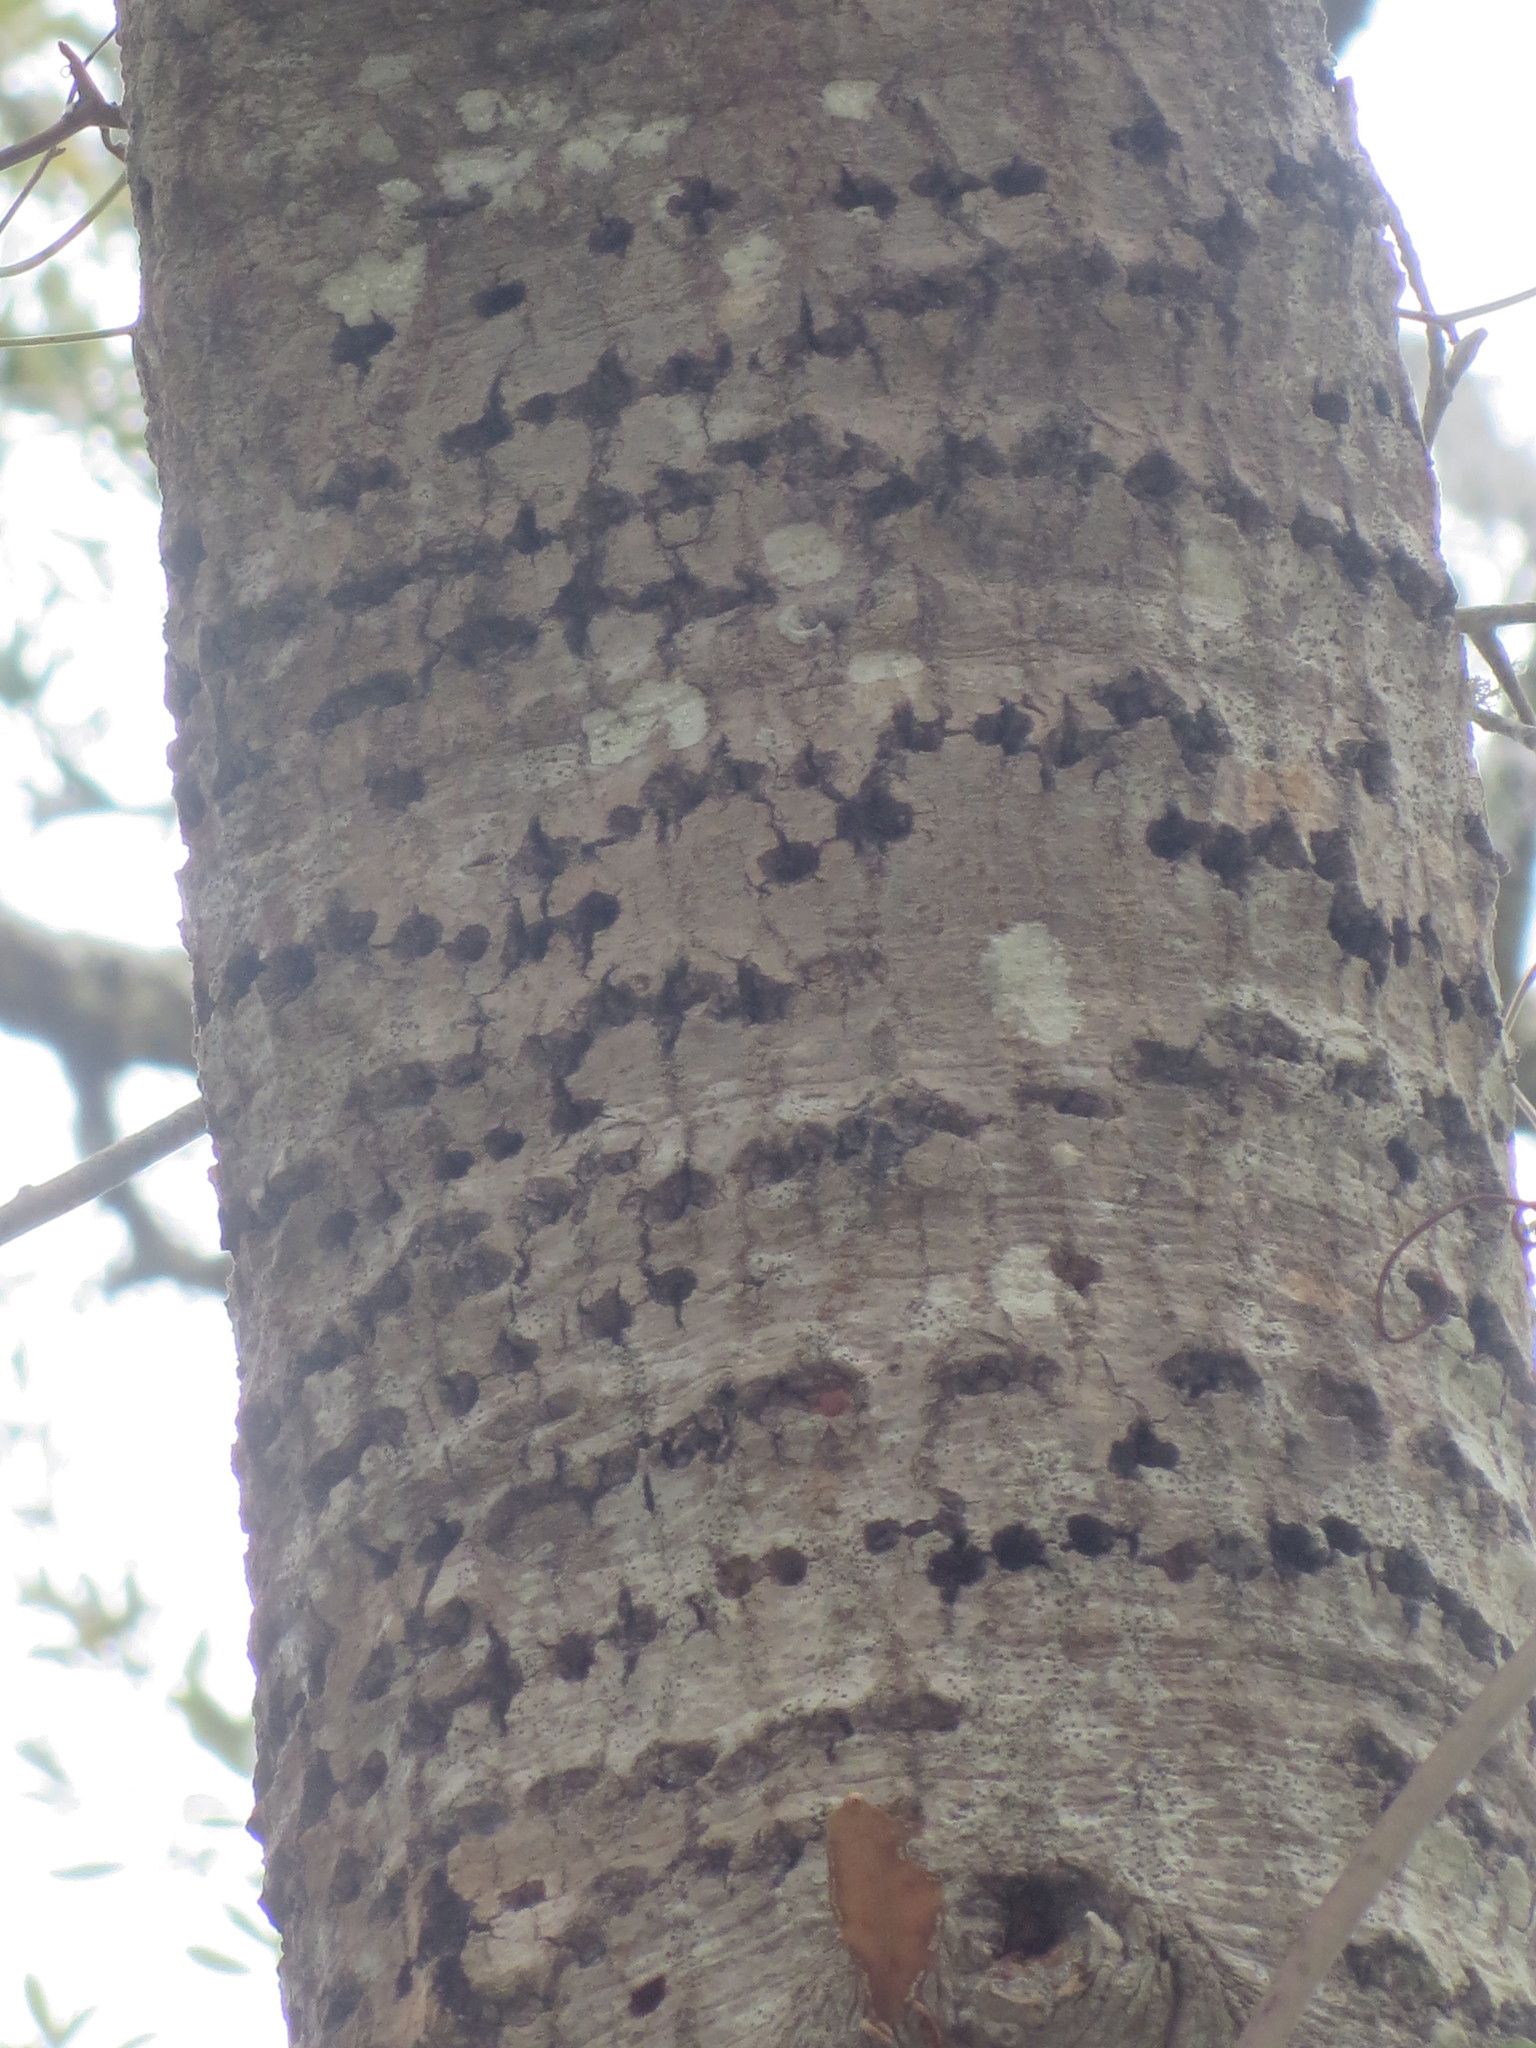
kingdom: Animalia
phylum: Chordata
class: Aves
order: Piciformes
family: Picidae
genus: Sphyrapicus
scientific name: Sphyrapicus varius
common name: Yellow-bellied sapsucker
